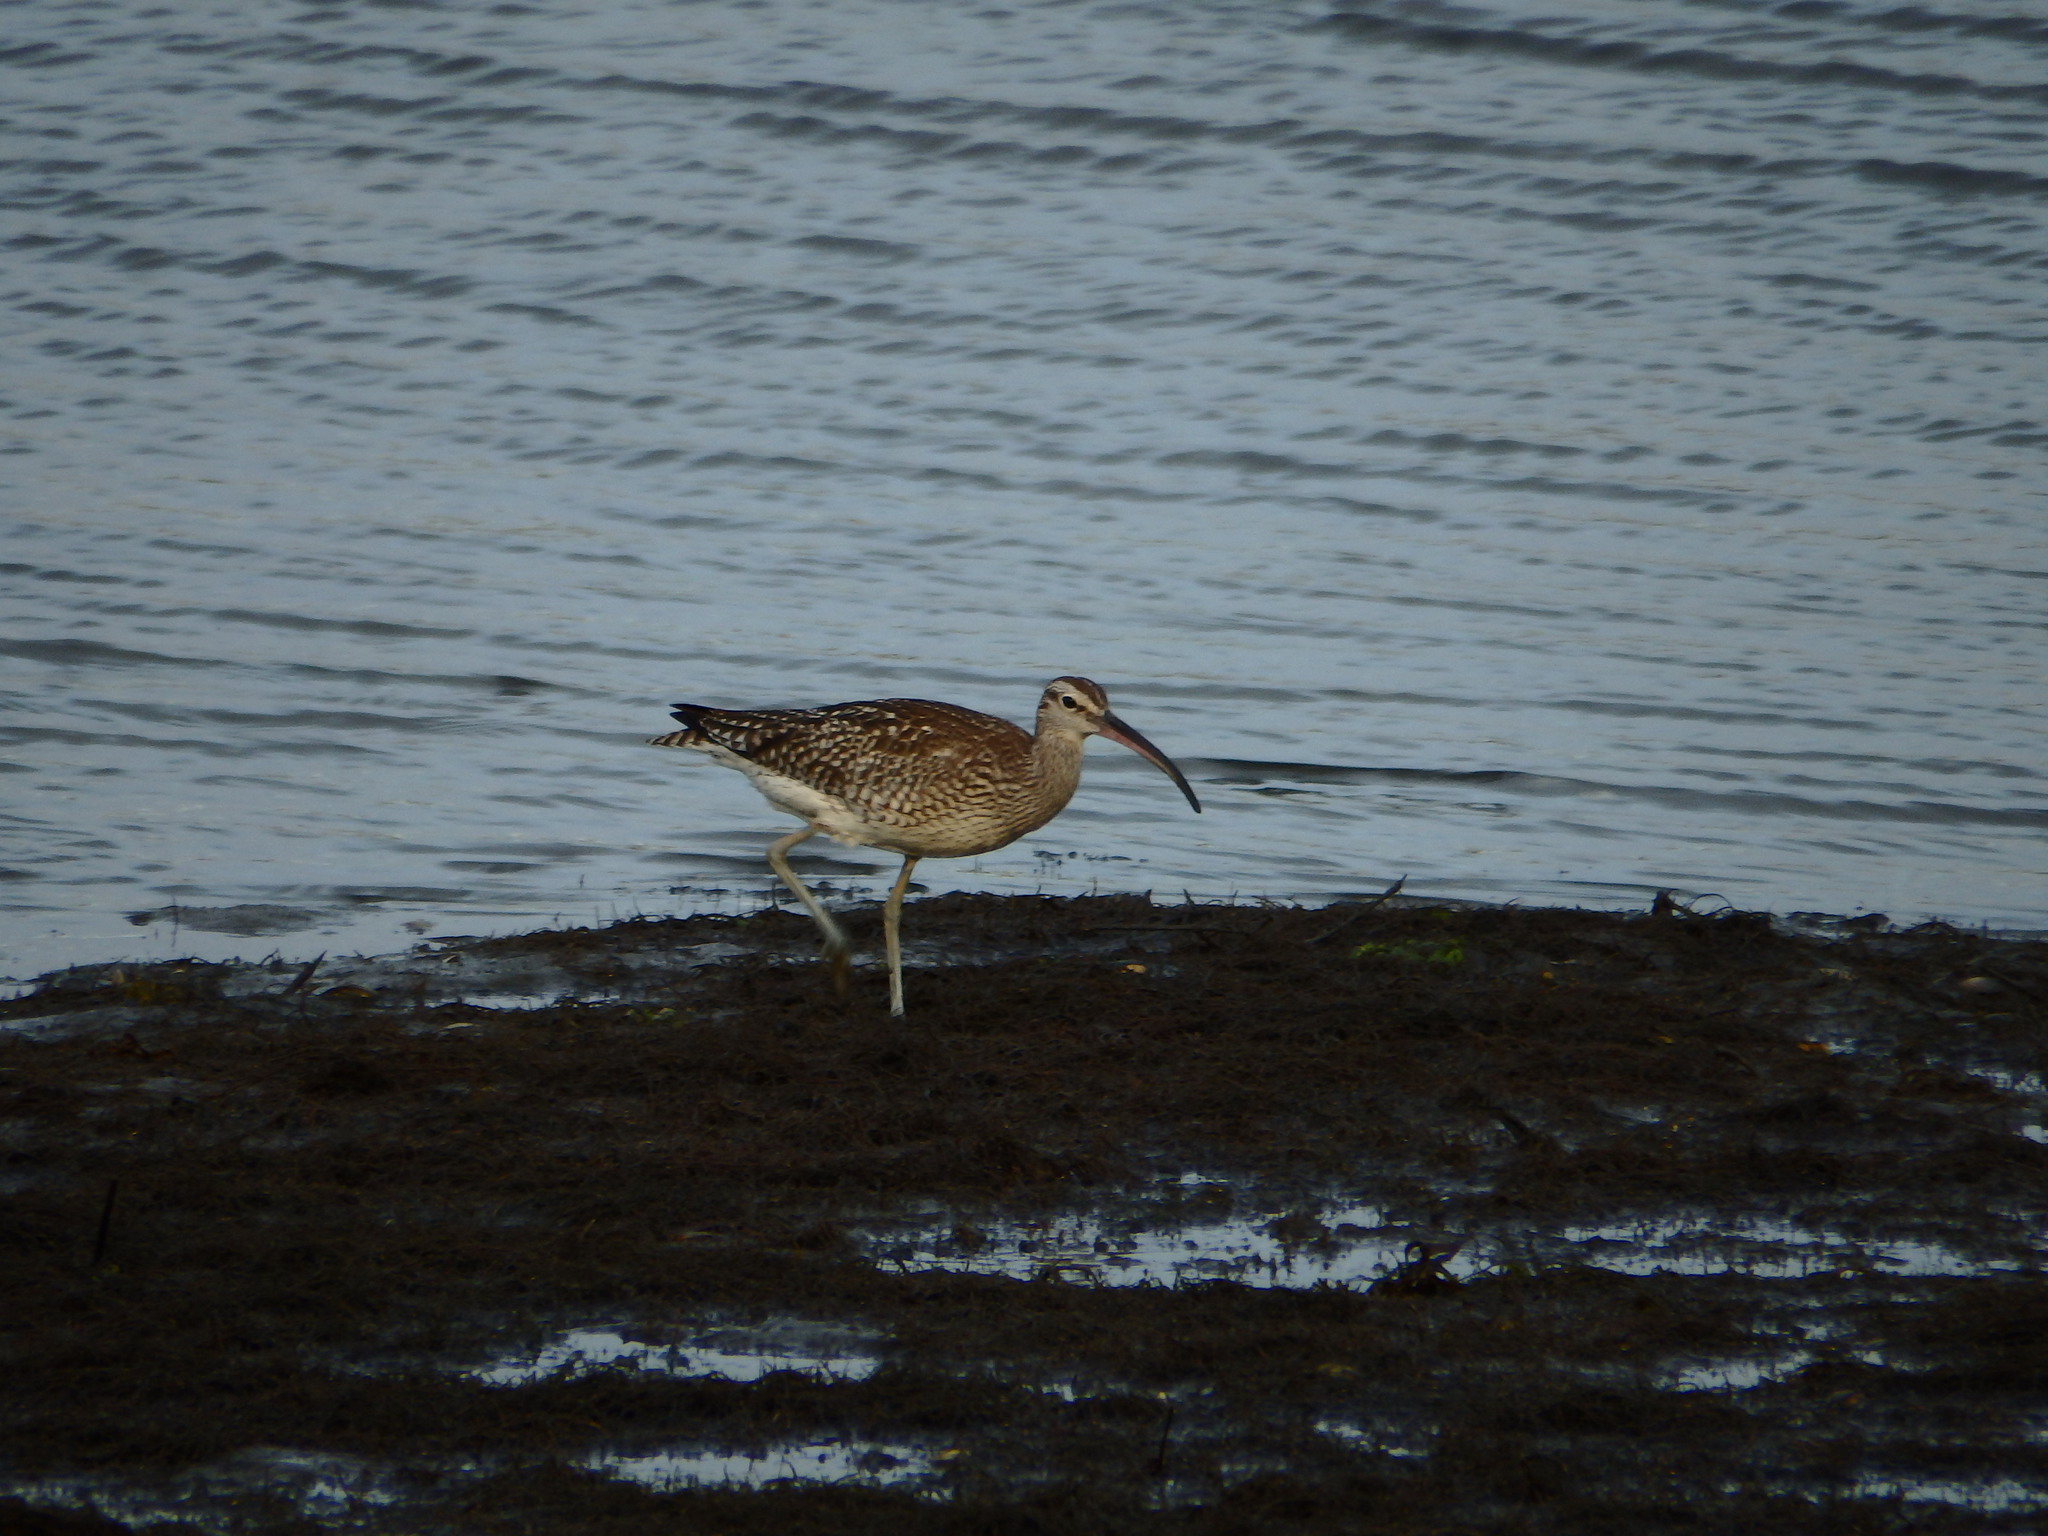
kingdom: Animalia
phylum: Chordata
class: Aves
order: Charadriiformes
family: Scolopacidae
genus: Numenius
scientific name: Numenius phaeopus
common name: Whimbrel
